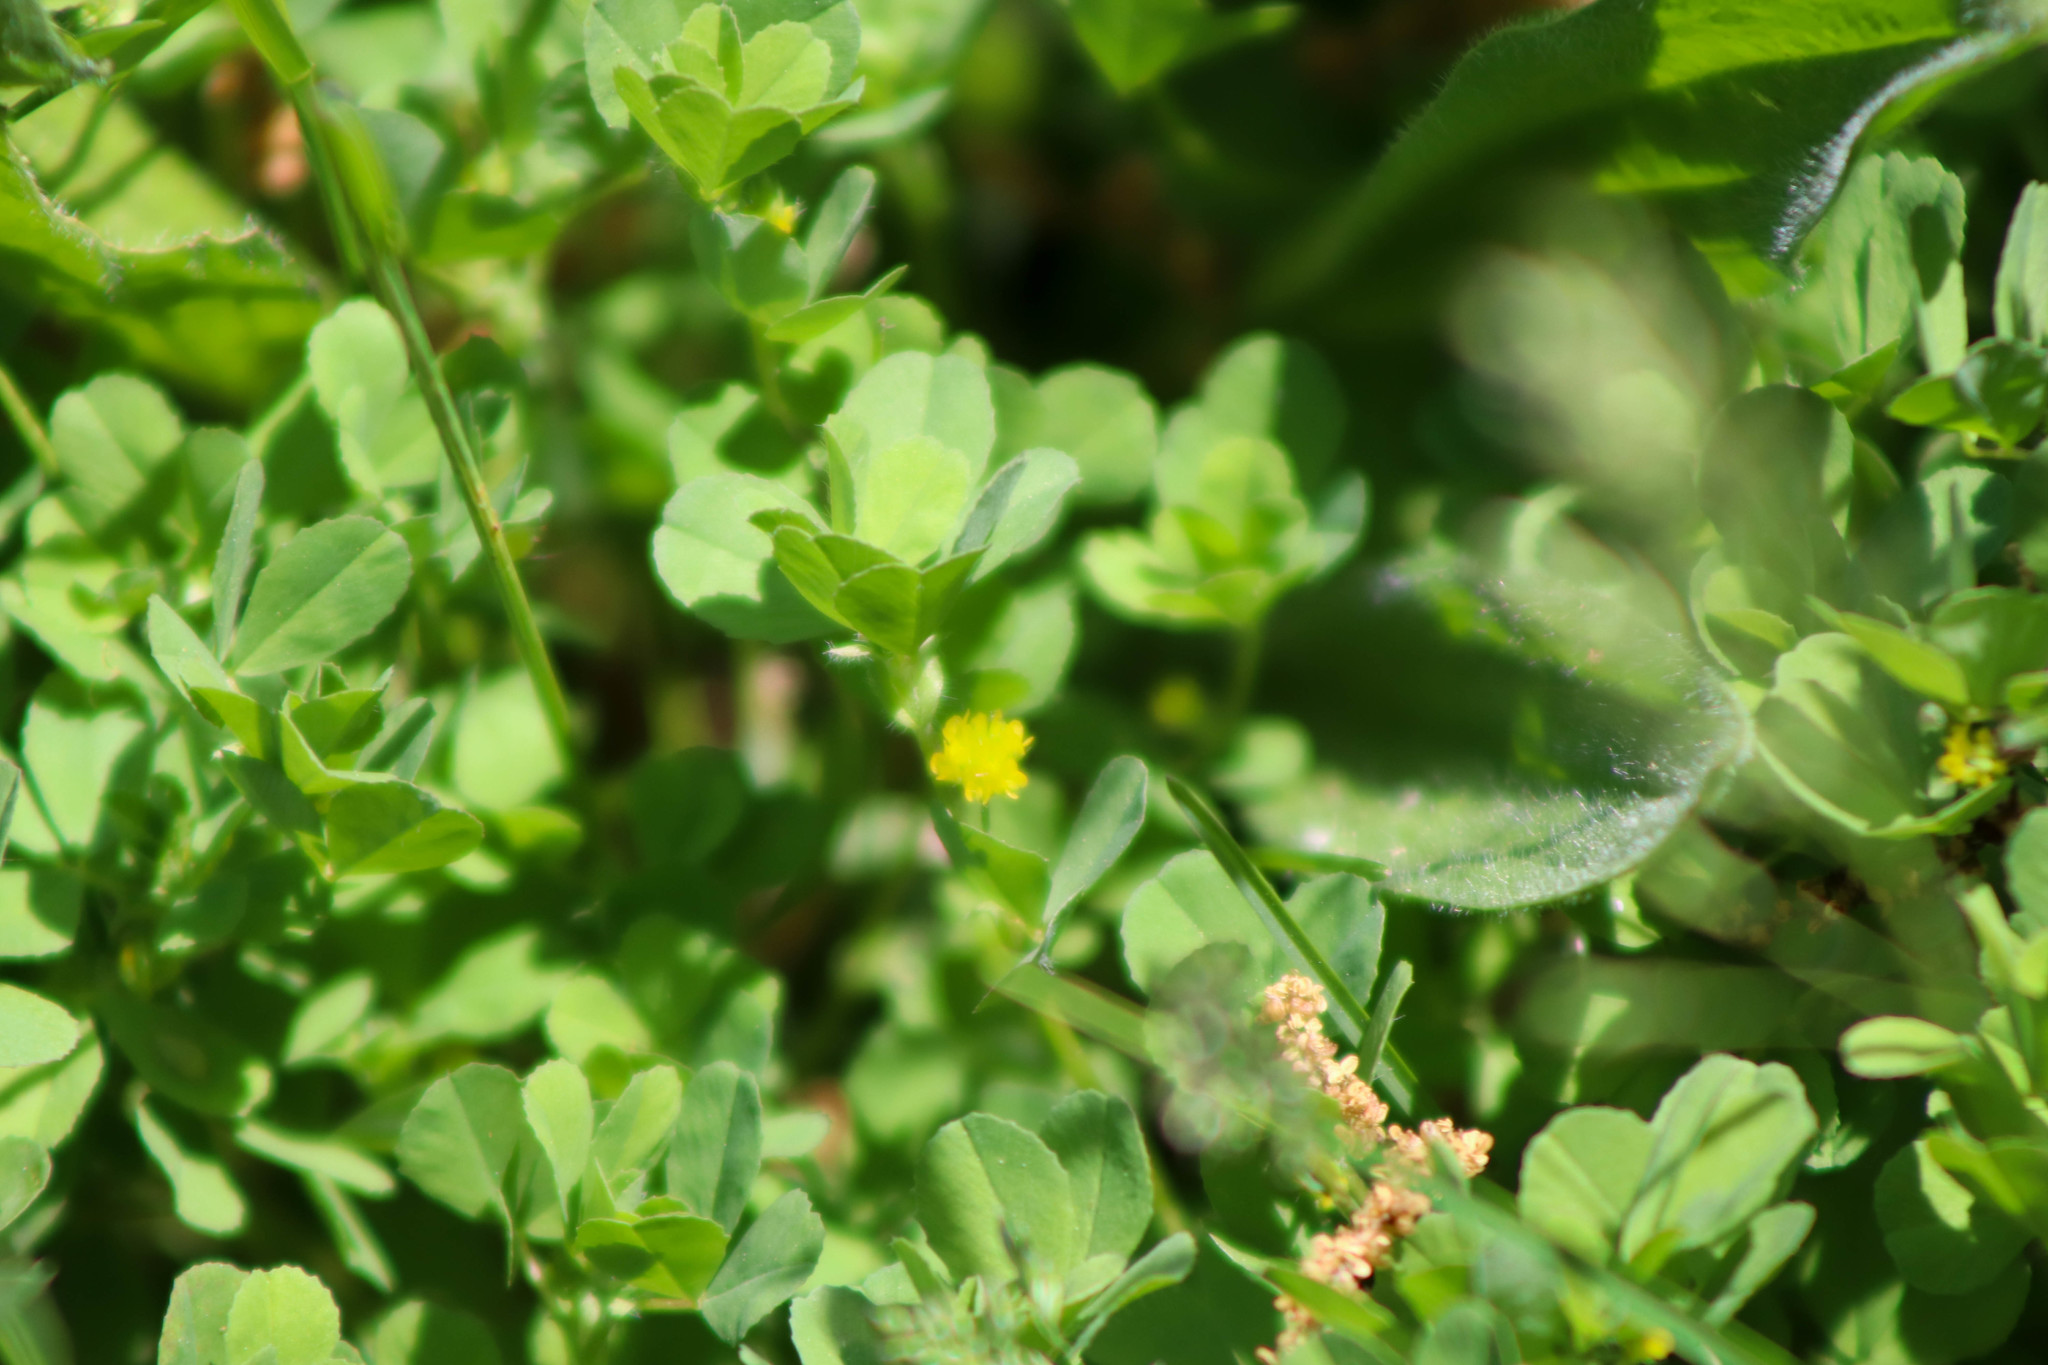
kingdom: Plantae
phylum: Tracheophyta
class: Magnoliopsida
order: Fabales
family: Fabaceae
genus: Medicago
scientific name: Medicago lupulina
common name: Black medick
